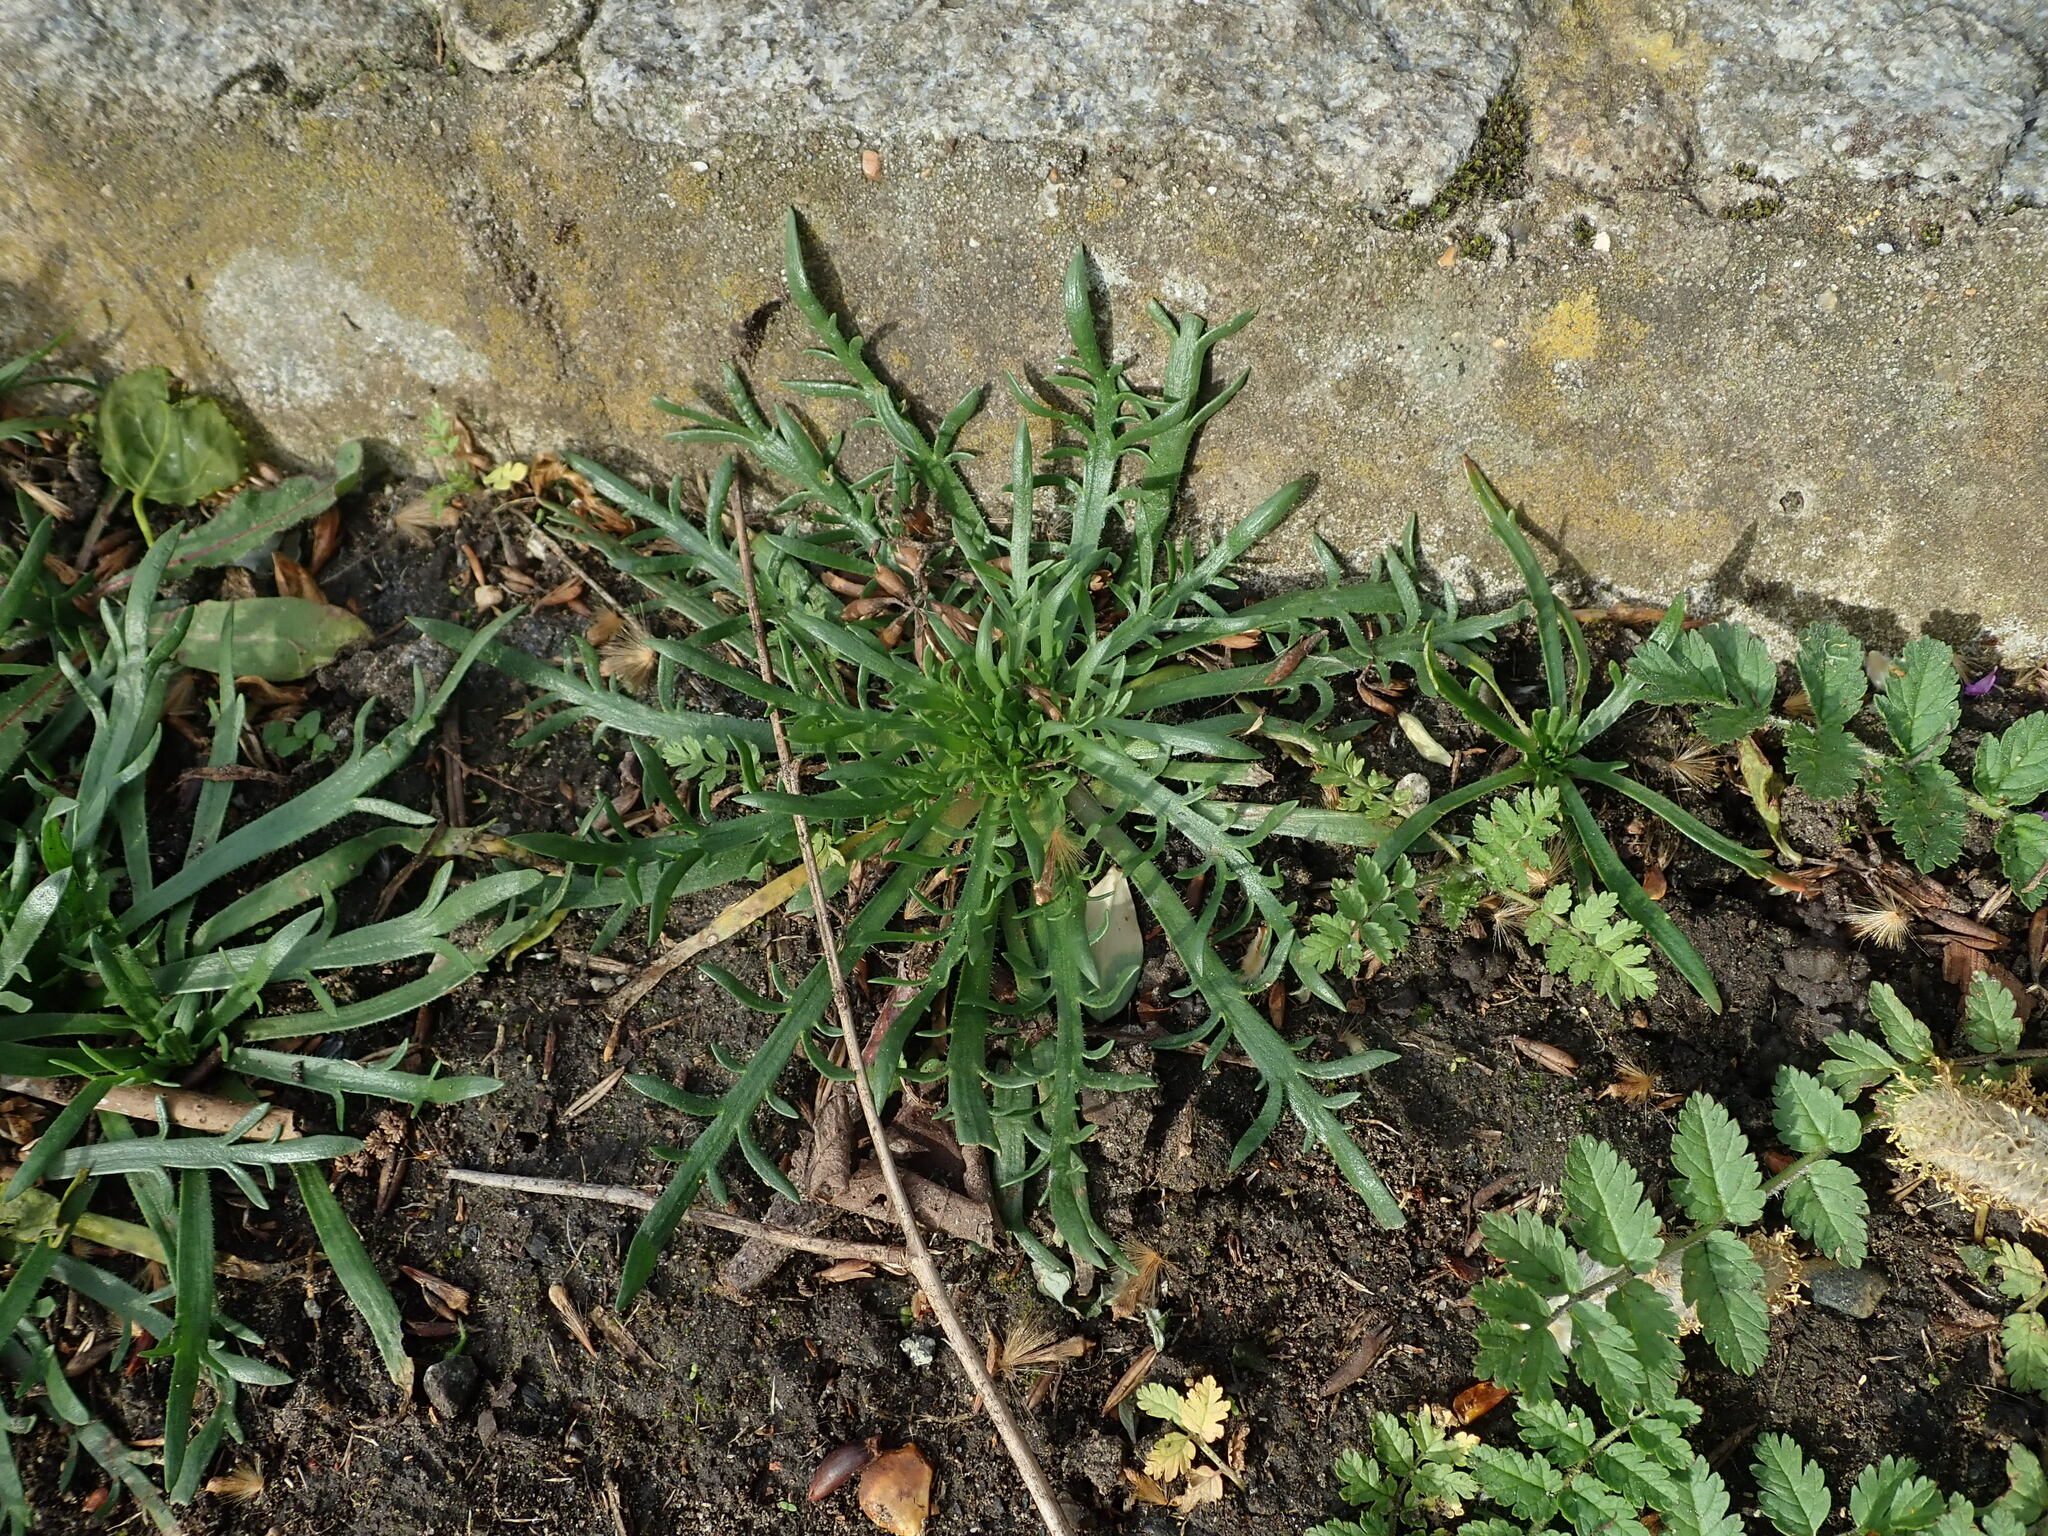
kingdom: Plantae
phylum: Tracheophyta
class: Magnoliopsida
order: Lamiales
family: Plantaginaceae
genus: Plantago
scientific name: Plantago coronopus
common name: Buck's-horn plantain
